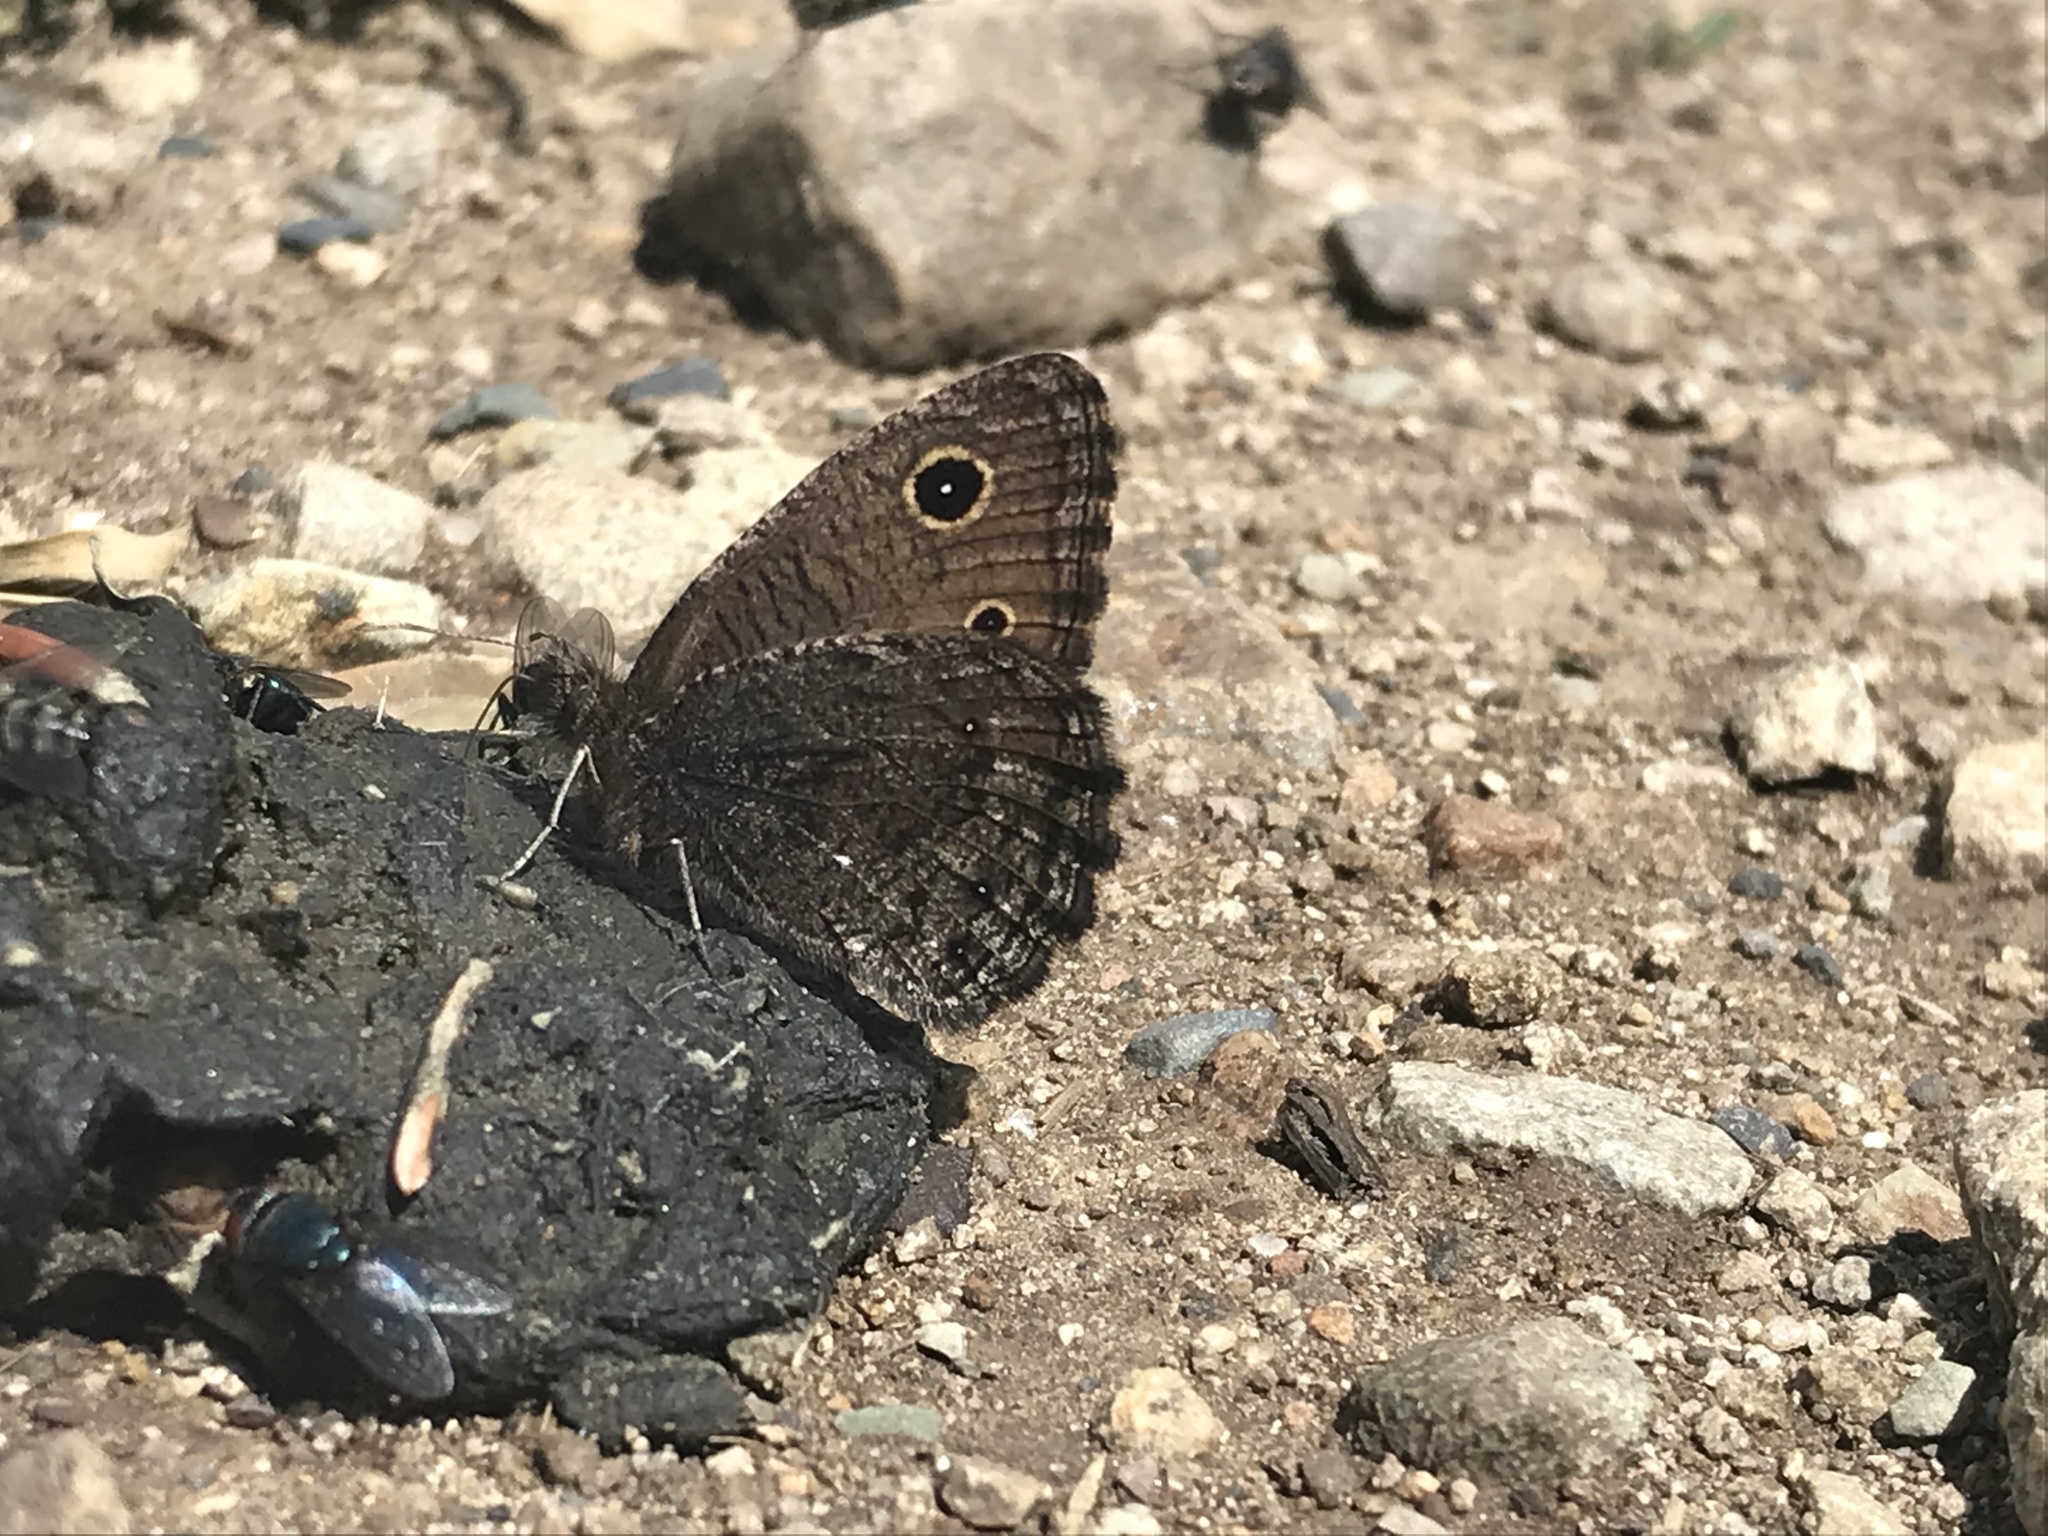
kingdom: Animalia
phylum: Arthropoda
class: Insecta
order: Lepidoptera
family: Nymphalidae
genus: Cercyonis
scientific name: Cercyonis oetus
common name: Small wood-nymph
